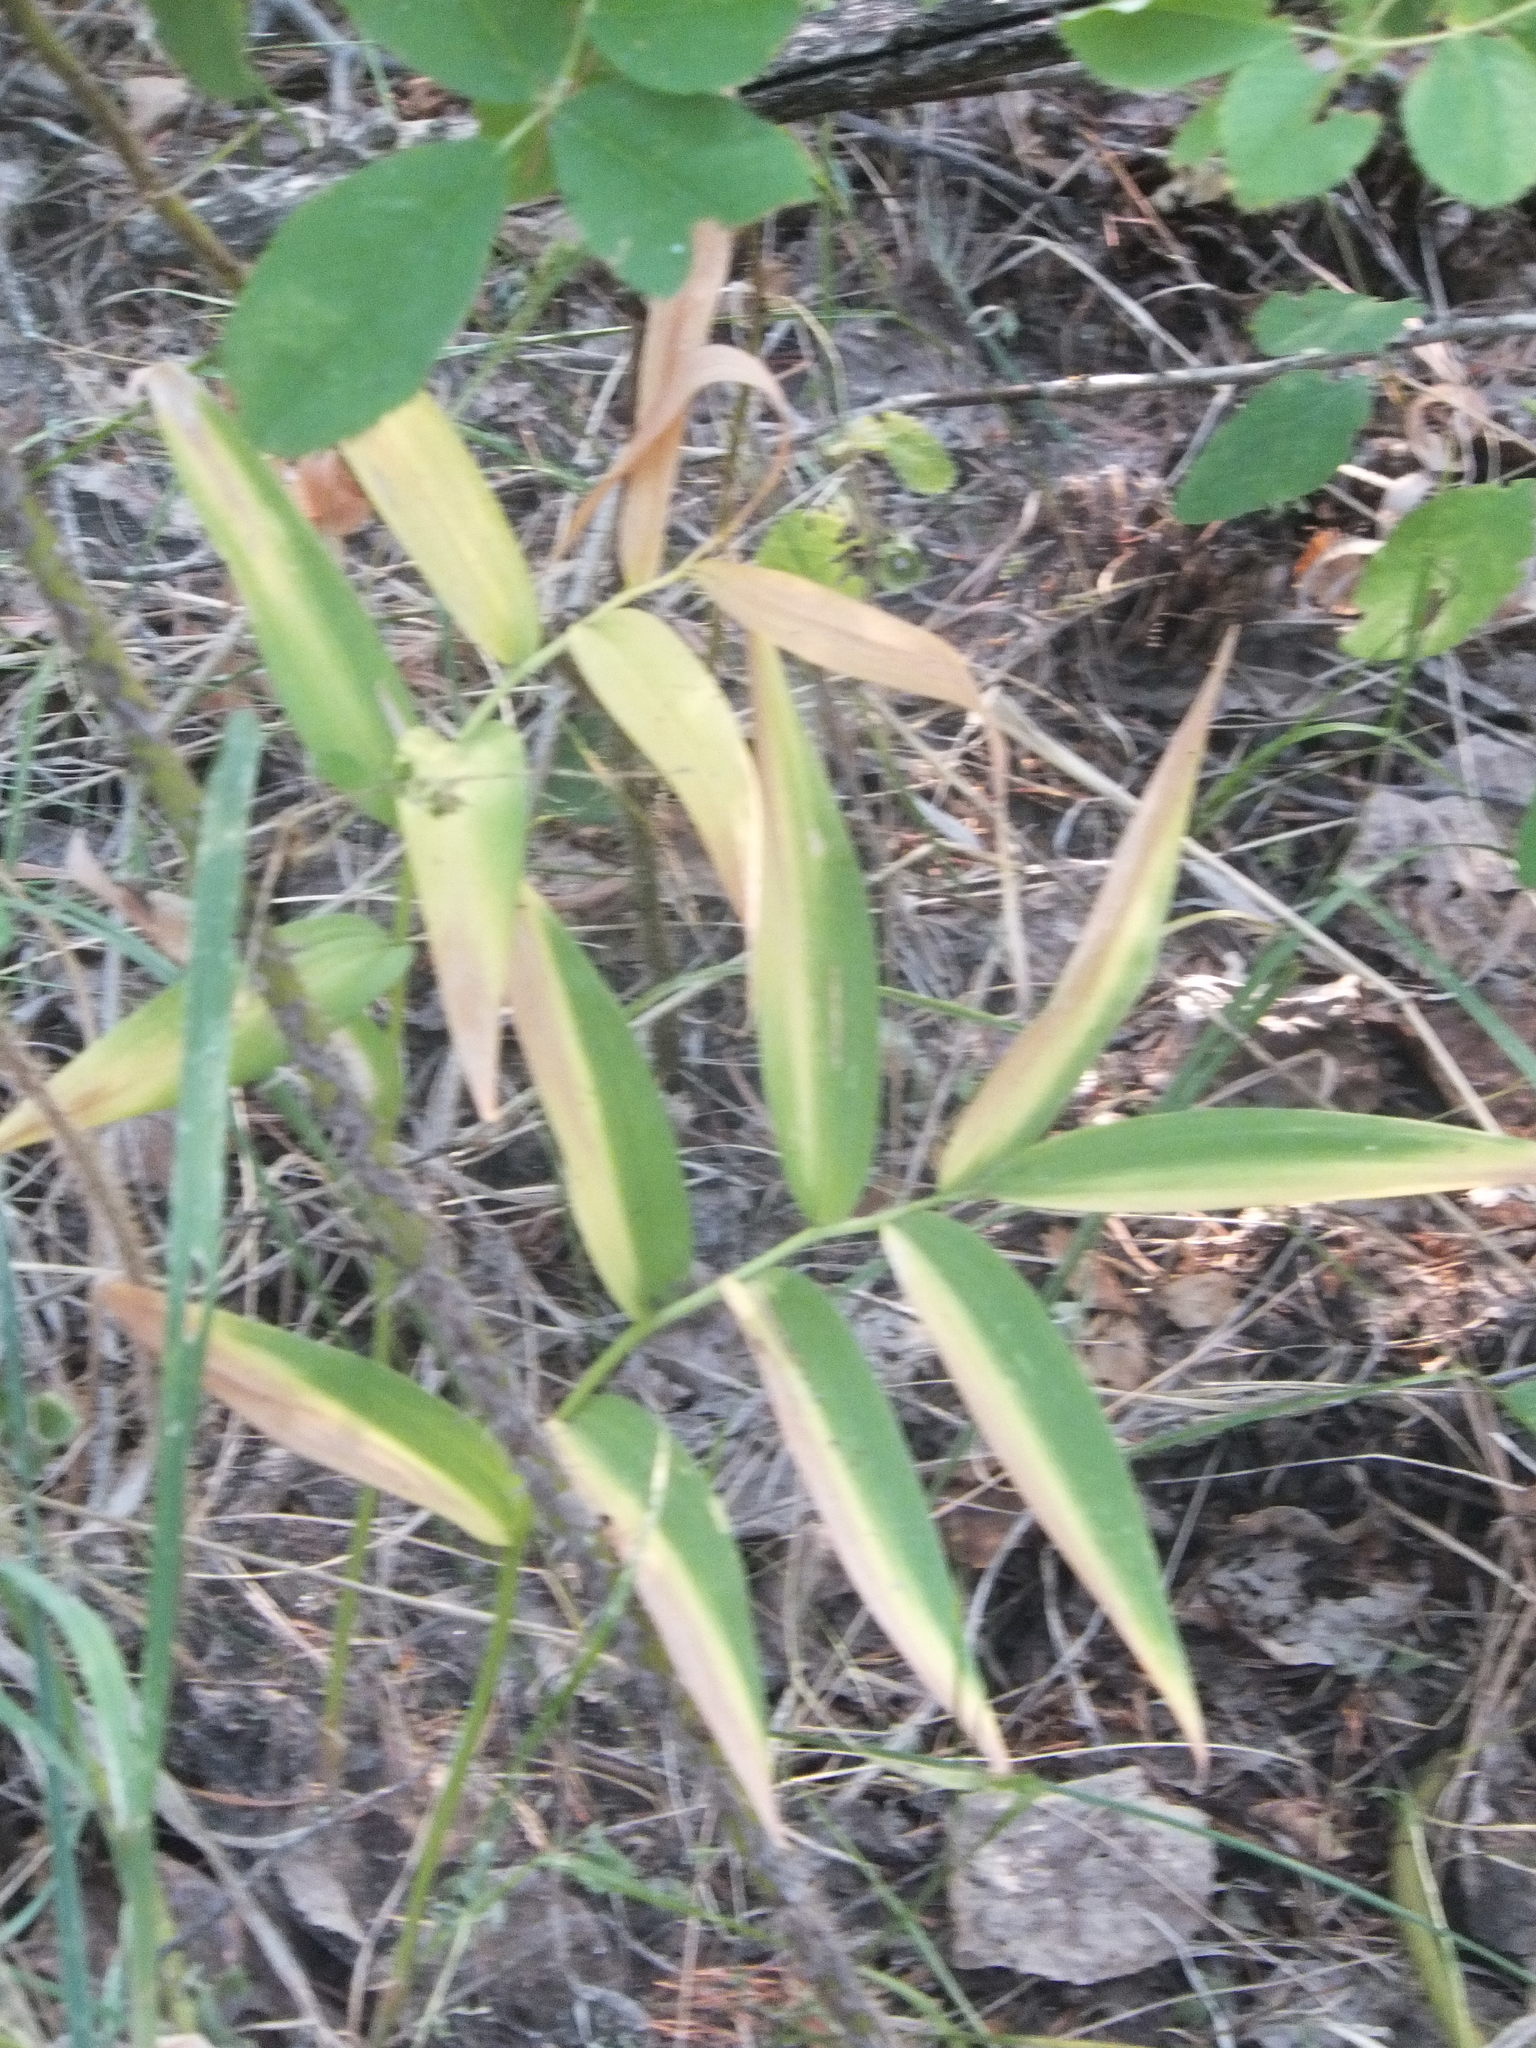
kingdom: Plantae
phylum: Tracheophyta
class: Liliopsida
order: Asparagales
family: Asparagaceae
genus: Maianthemum
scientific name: Maianthemum stellatum
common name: Little false solomon's seal
